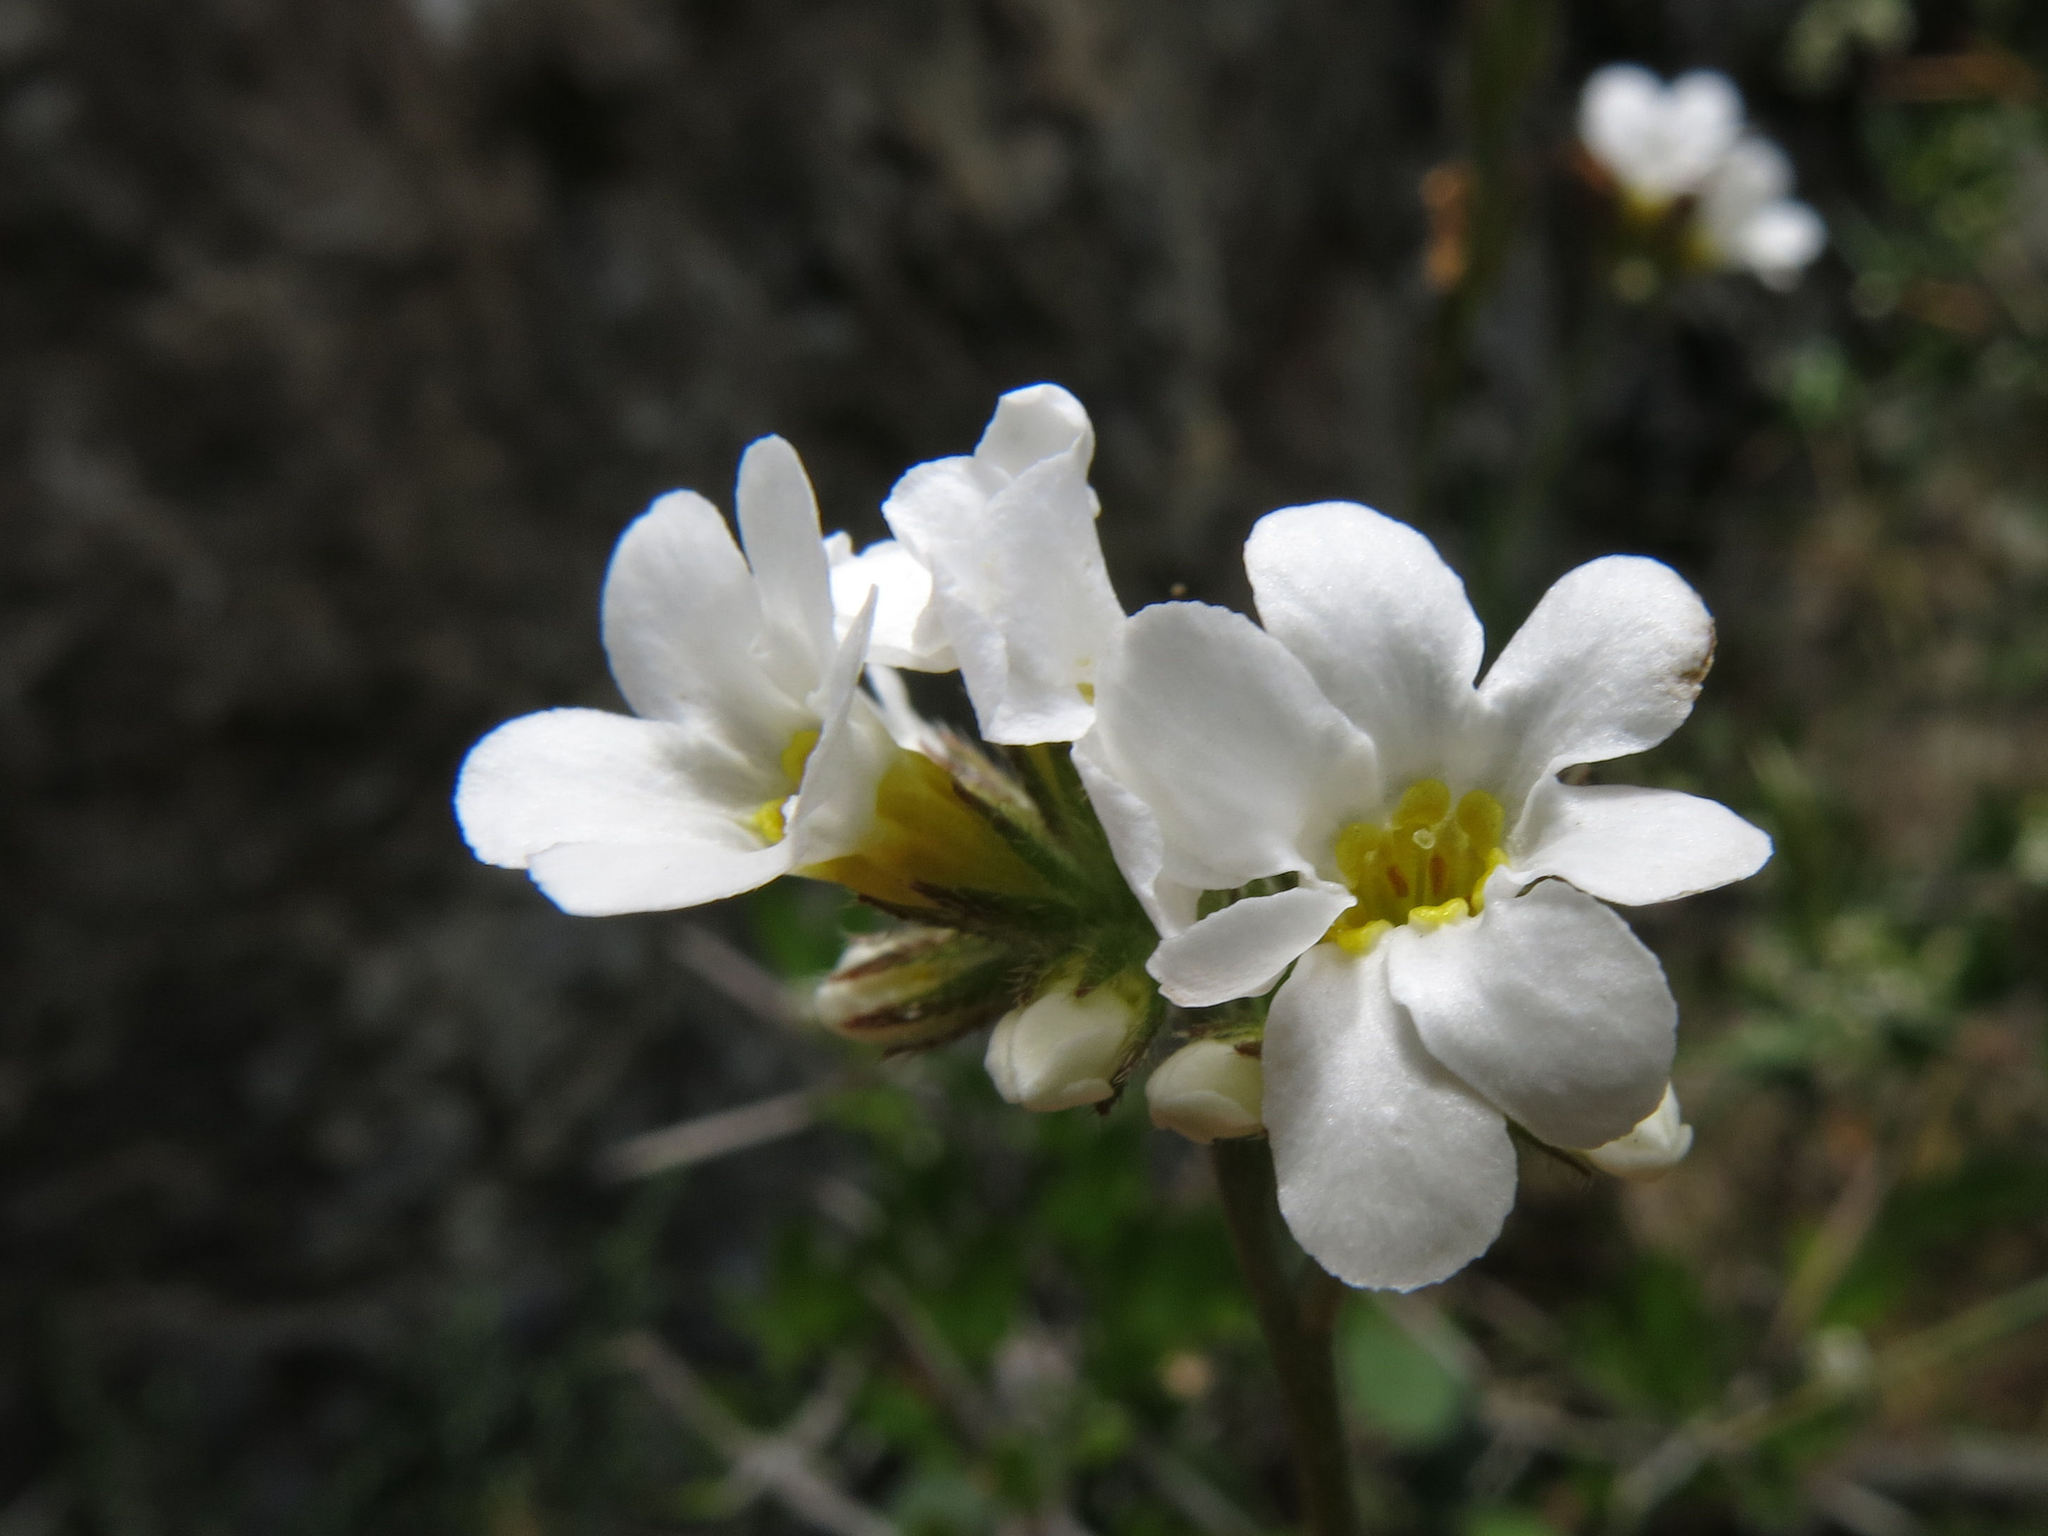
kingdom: Plantae
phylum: Tracheophyta
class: Magnoliopsida
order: Boraginales
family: Boraginaceae
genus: Myosotis
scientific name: Myosotis goyenii
